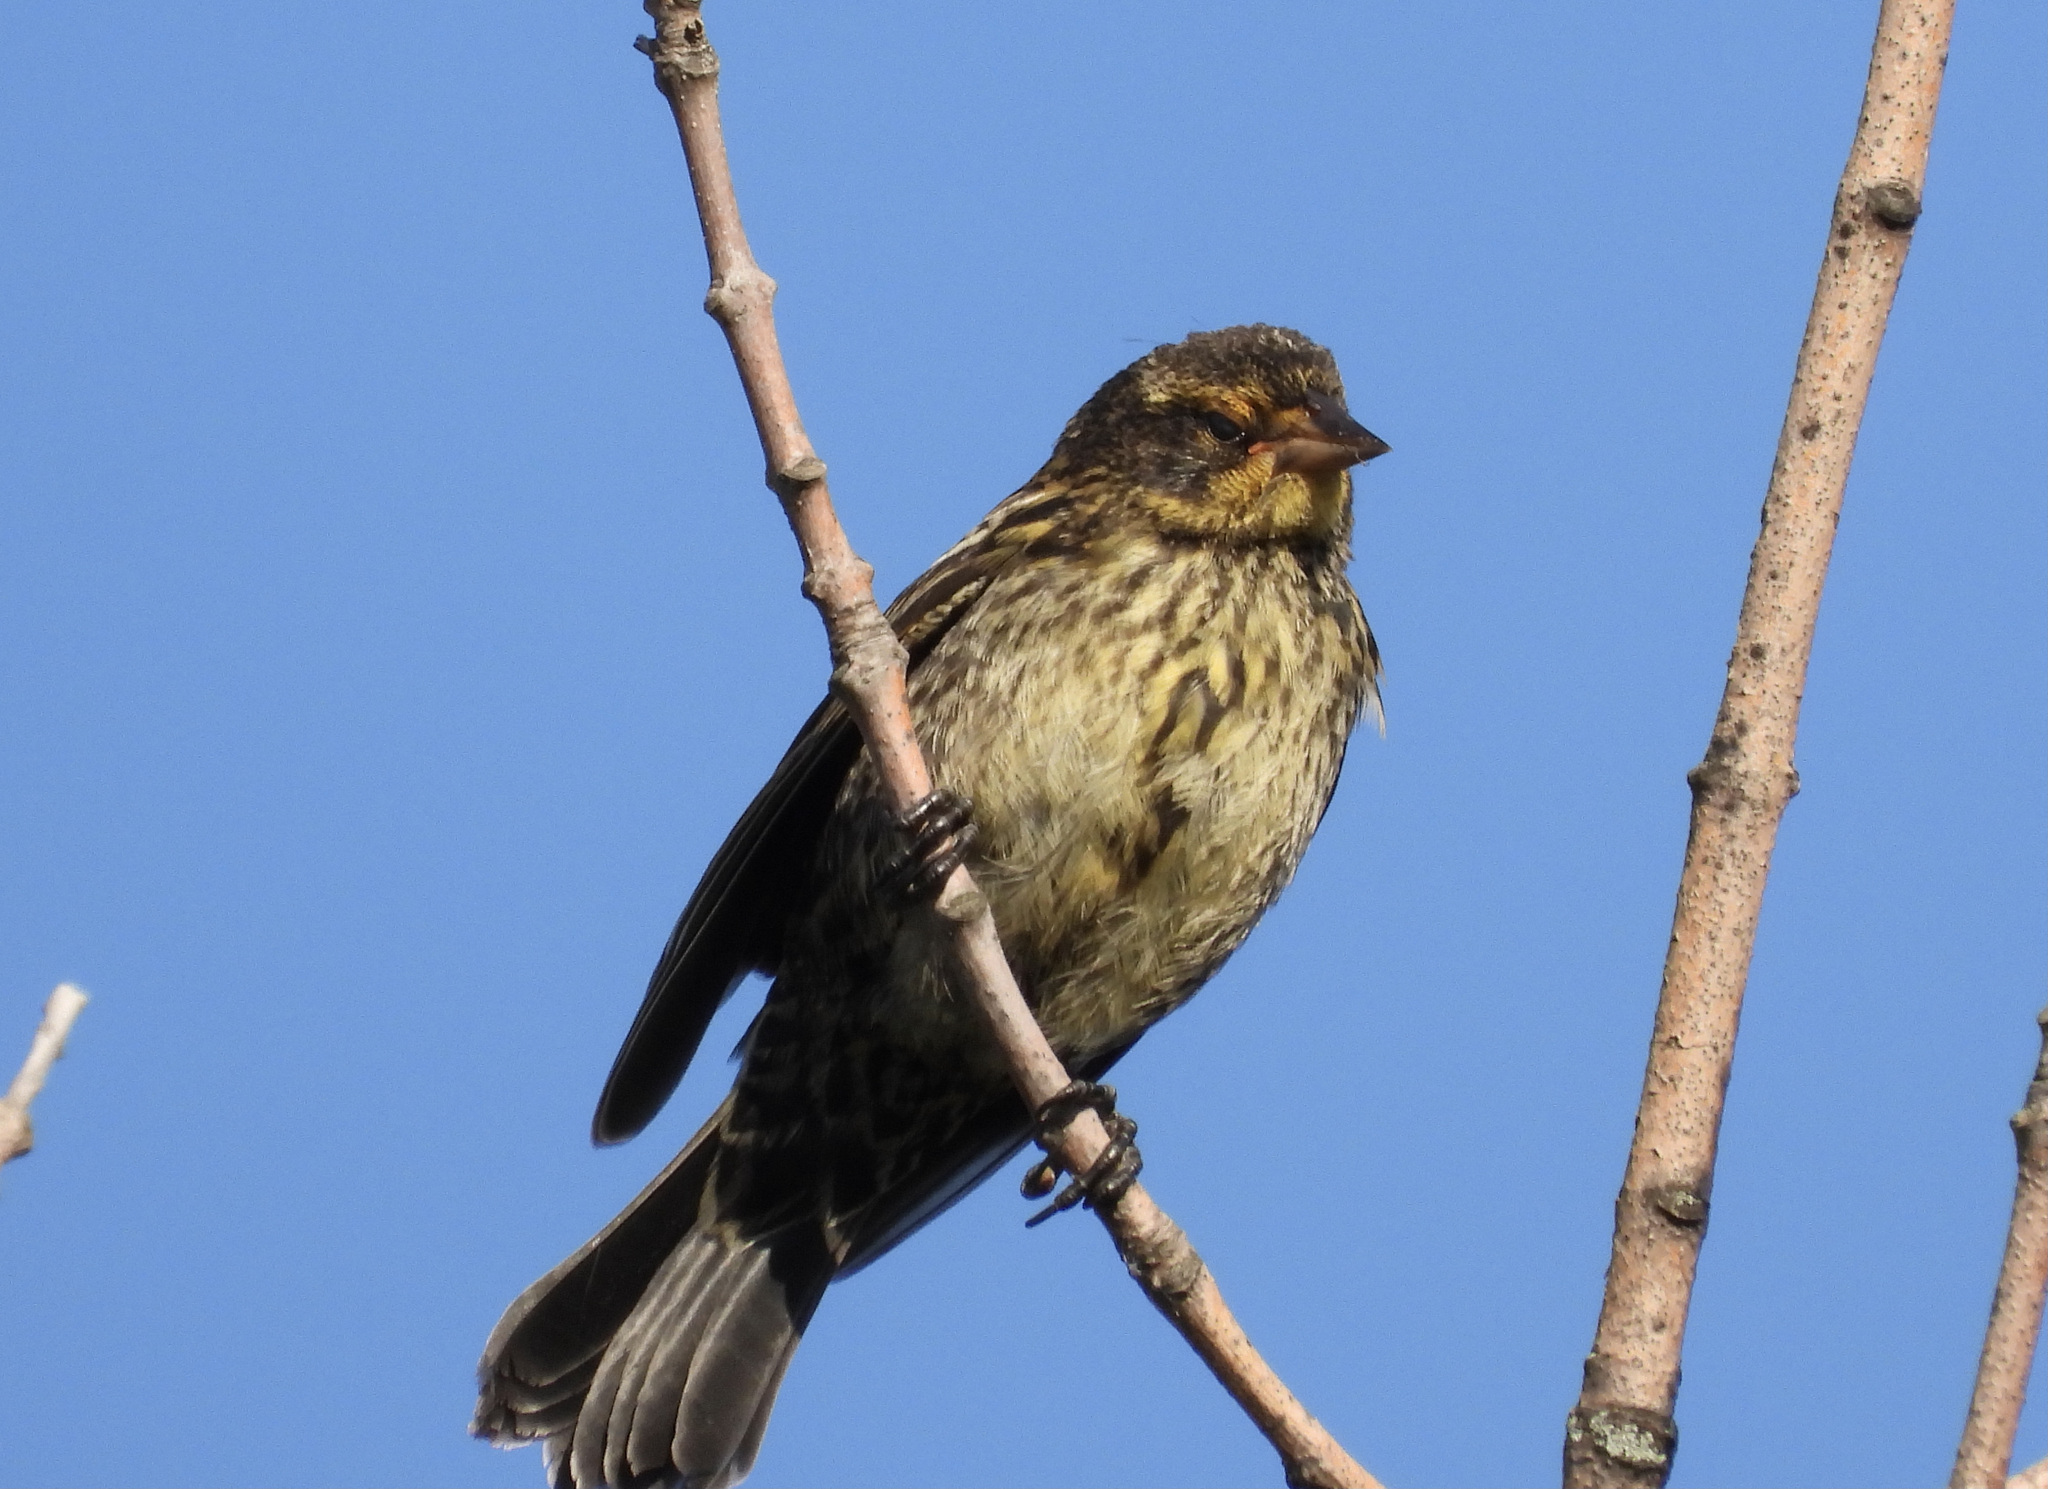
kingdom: Animalia
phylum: Chordata
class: Aves
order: Passeriformes
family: Icteridae
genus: Agelaius
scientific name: Agelaius phoeniceus
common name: Red-winged blackbird
